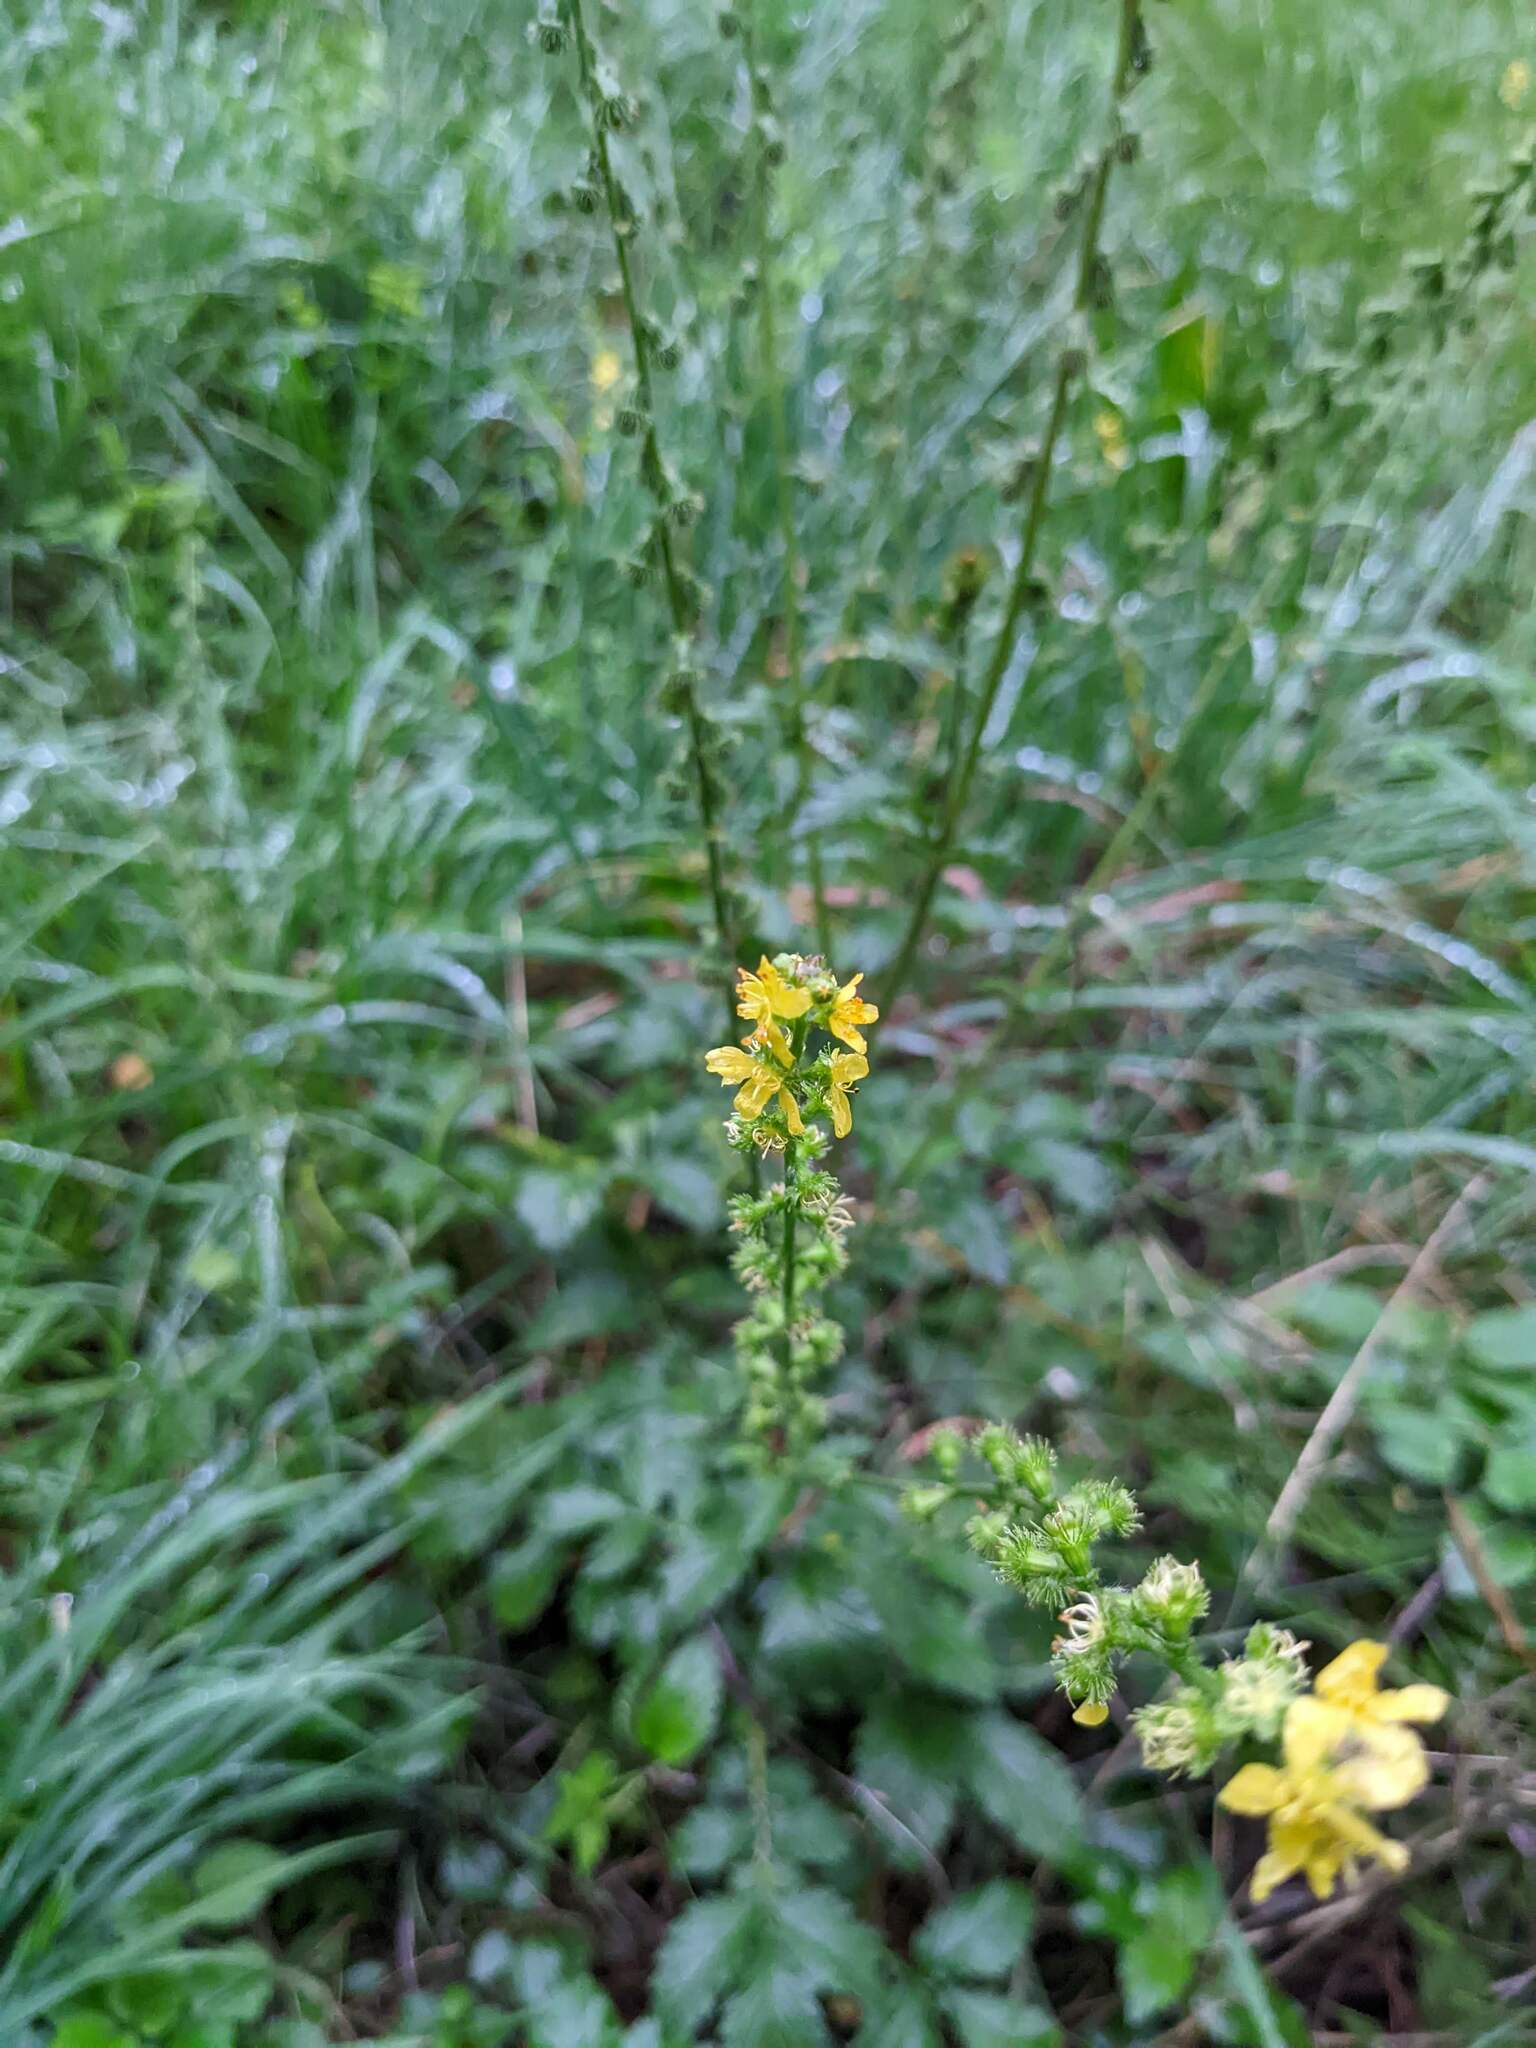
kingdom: Plantae
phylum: Tracheophyta
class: Magnoliopsida
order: Rosales
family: Rosaceae
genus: Agrimonia
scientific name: Agrimonia eupatoria
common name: Agrimony
